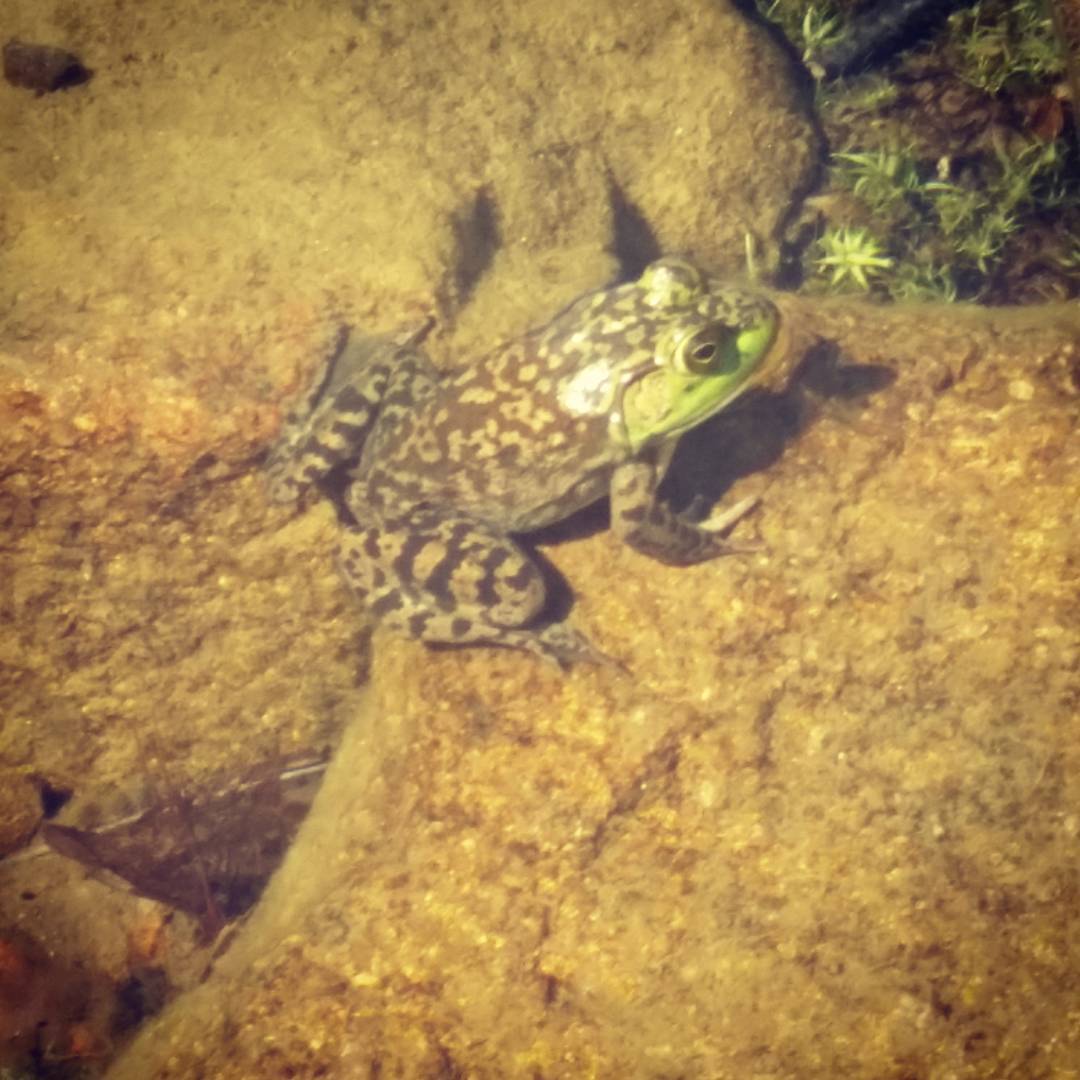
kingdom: Animalia
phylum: Chordata
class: Amphibia
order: Anura
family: Ranidae
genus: Lithobates
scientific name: Lithobates catesbeianus
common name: American bullfrog
